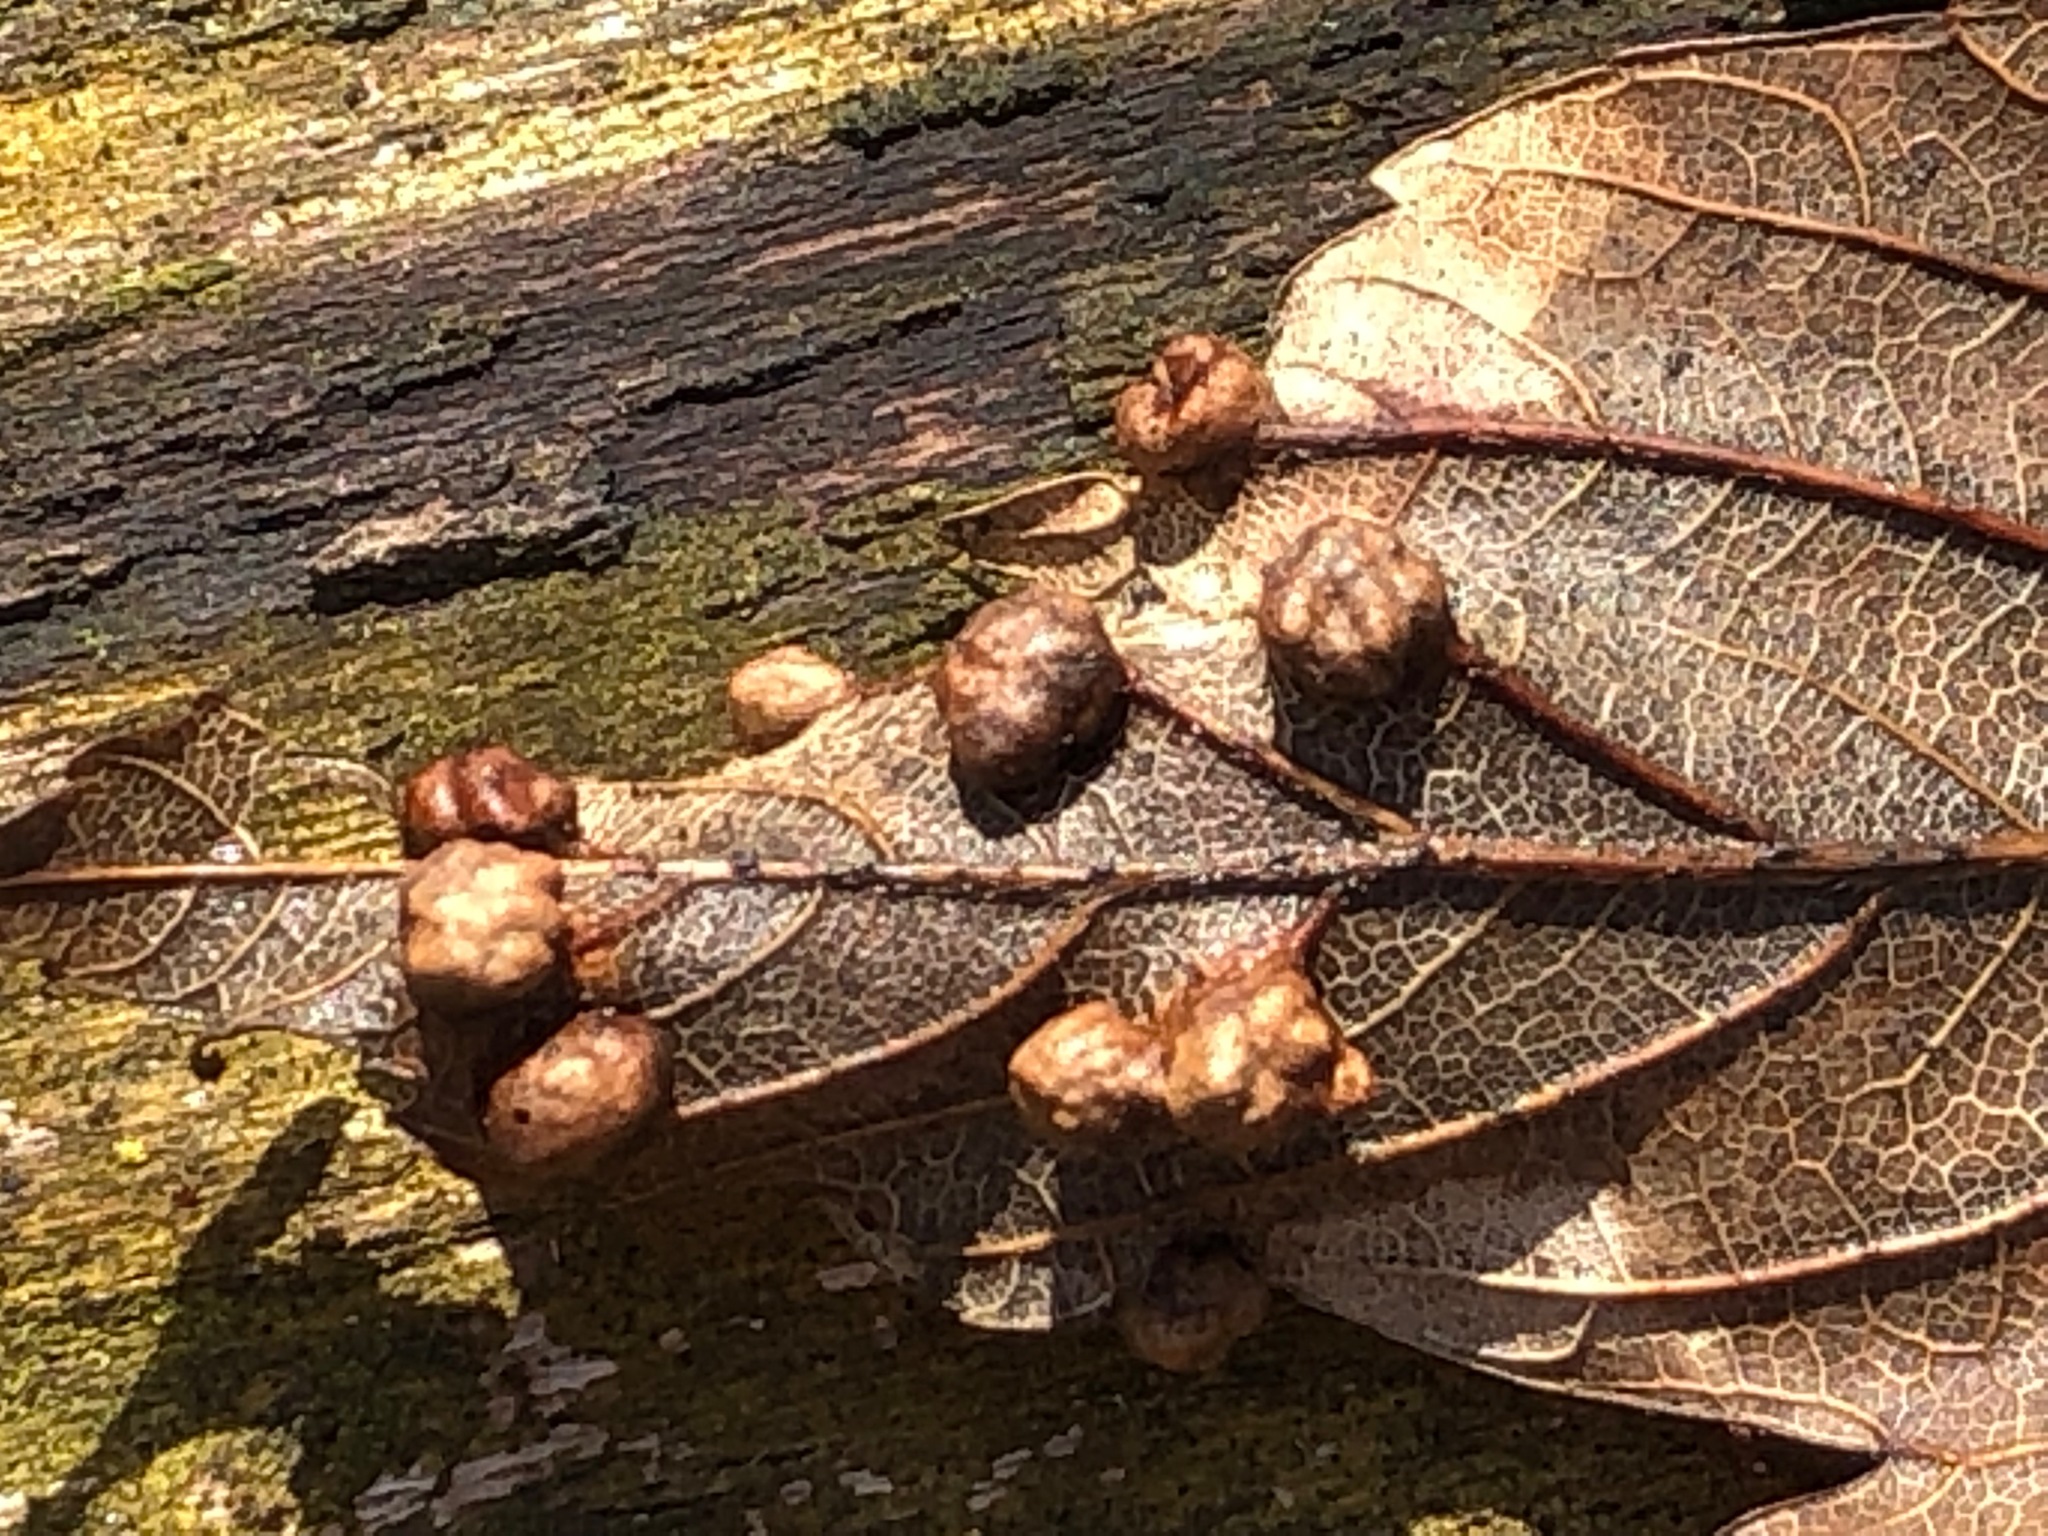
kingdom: Animalia
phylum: Arthropoda
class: Insecta
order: Hymenoptera
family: Cynipidae
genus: Pediaspis
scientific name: Pediaspis aceris
